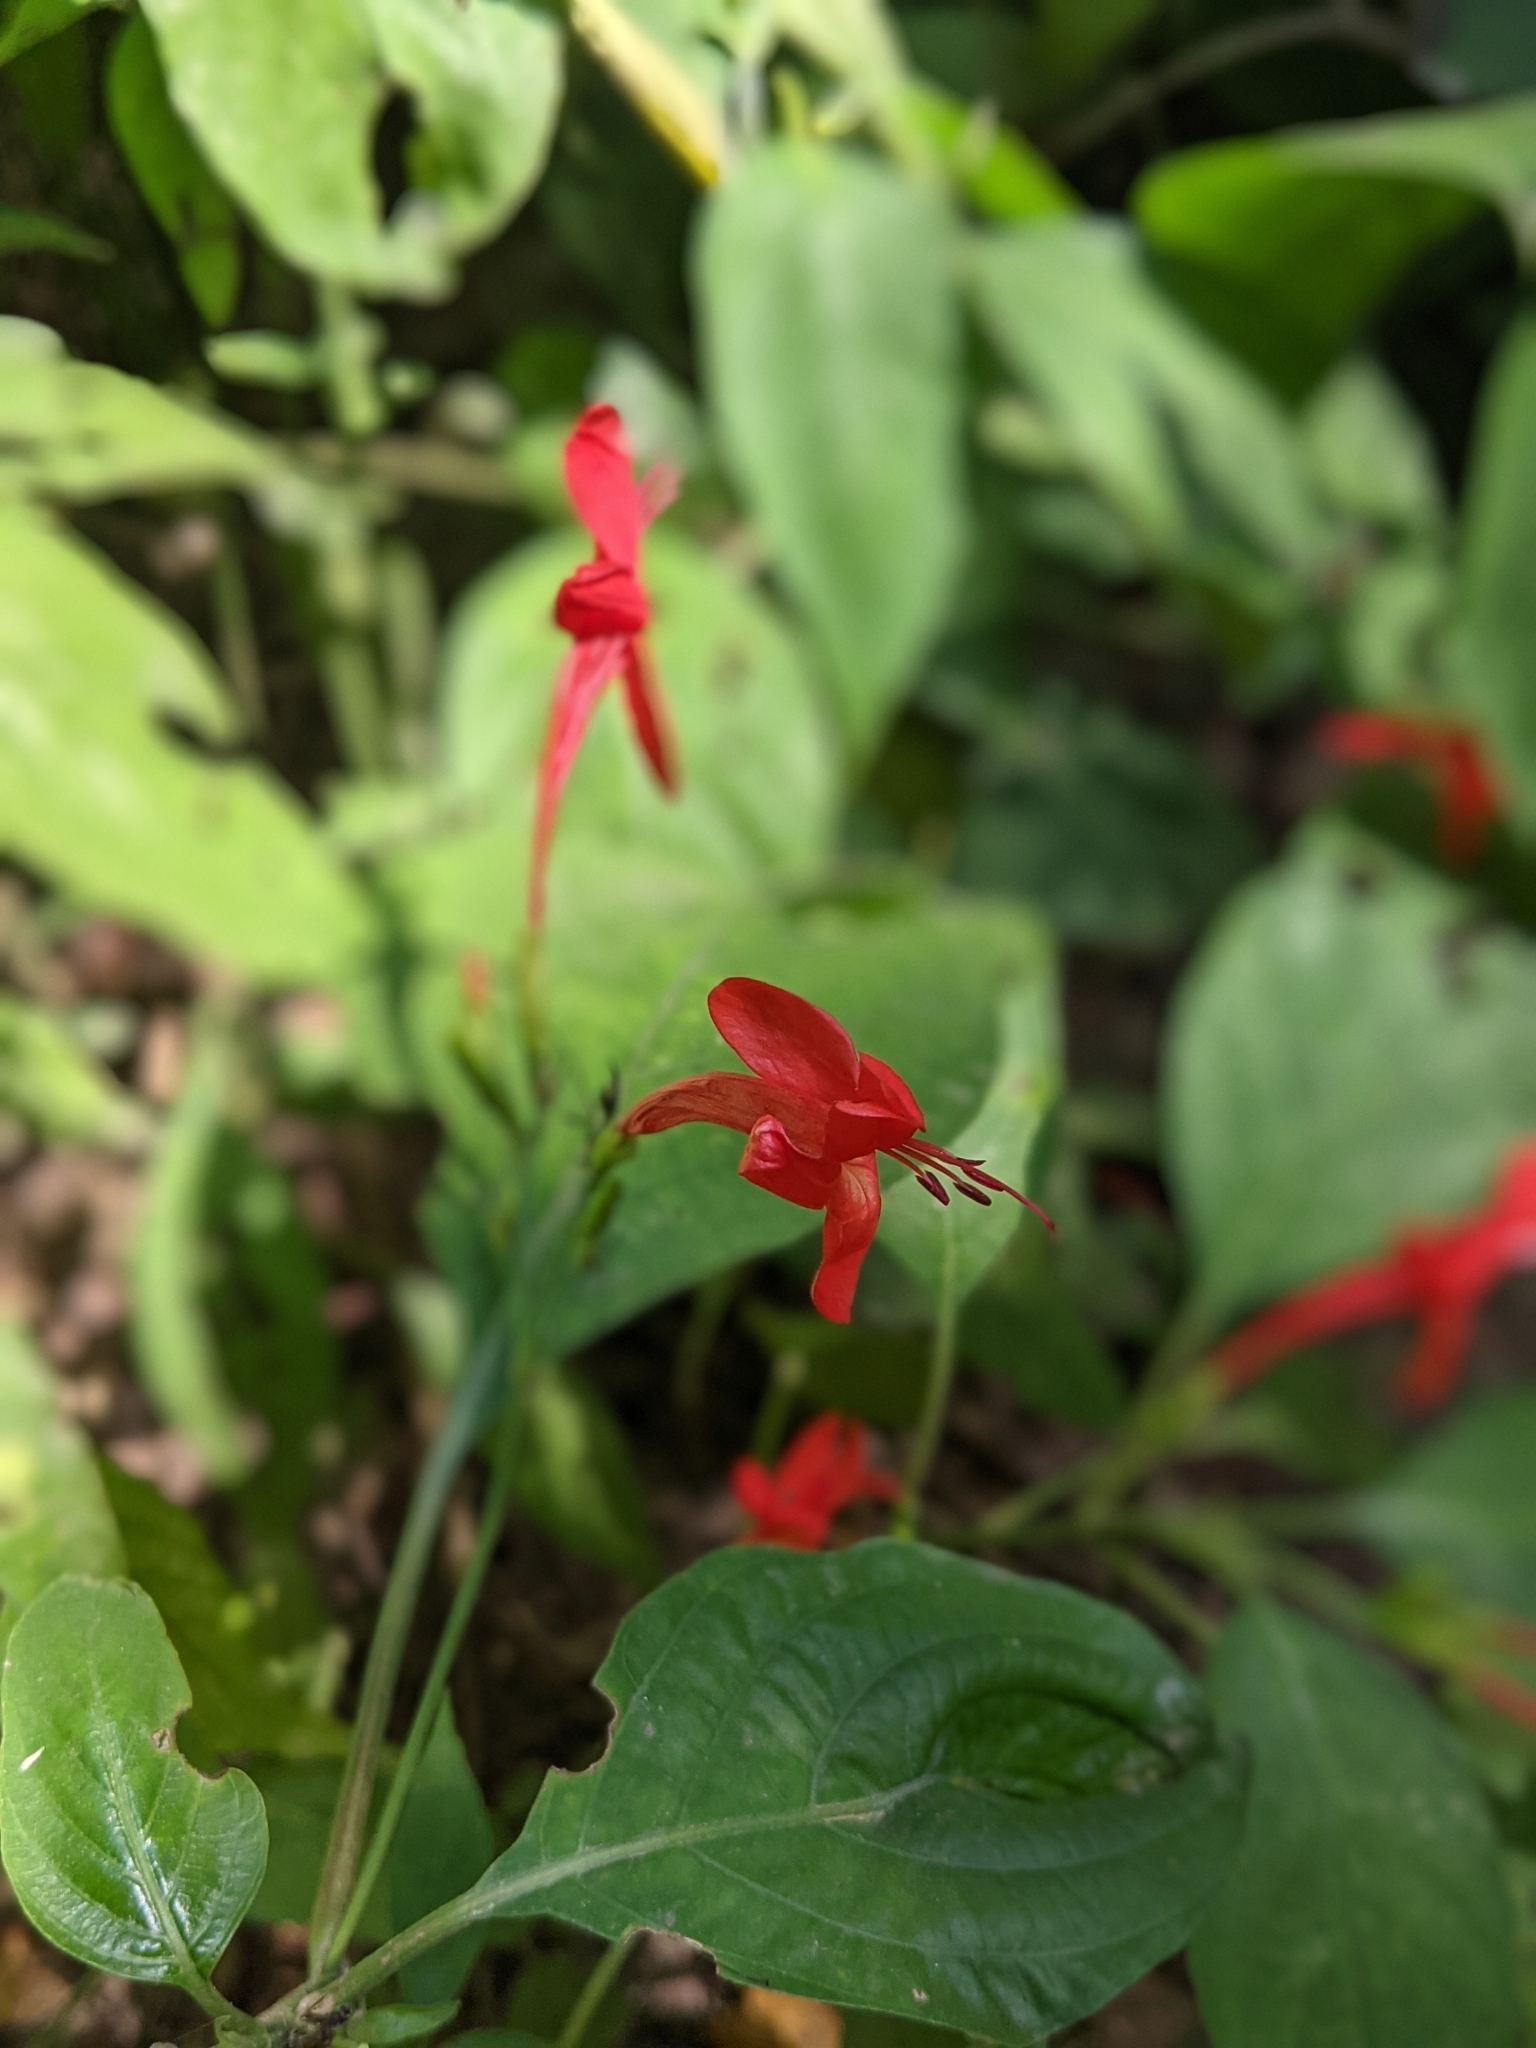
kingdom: Plantae
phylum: Tracheophyta
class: Magnoliopsida
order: Lamiales
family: Acanthaceae
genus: Ruellia
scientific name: Ruellia macrophylla
